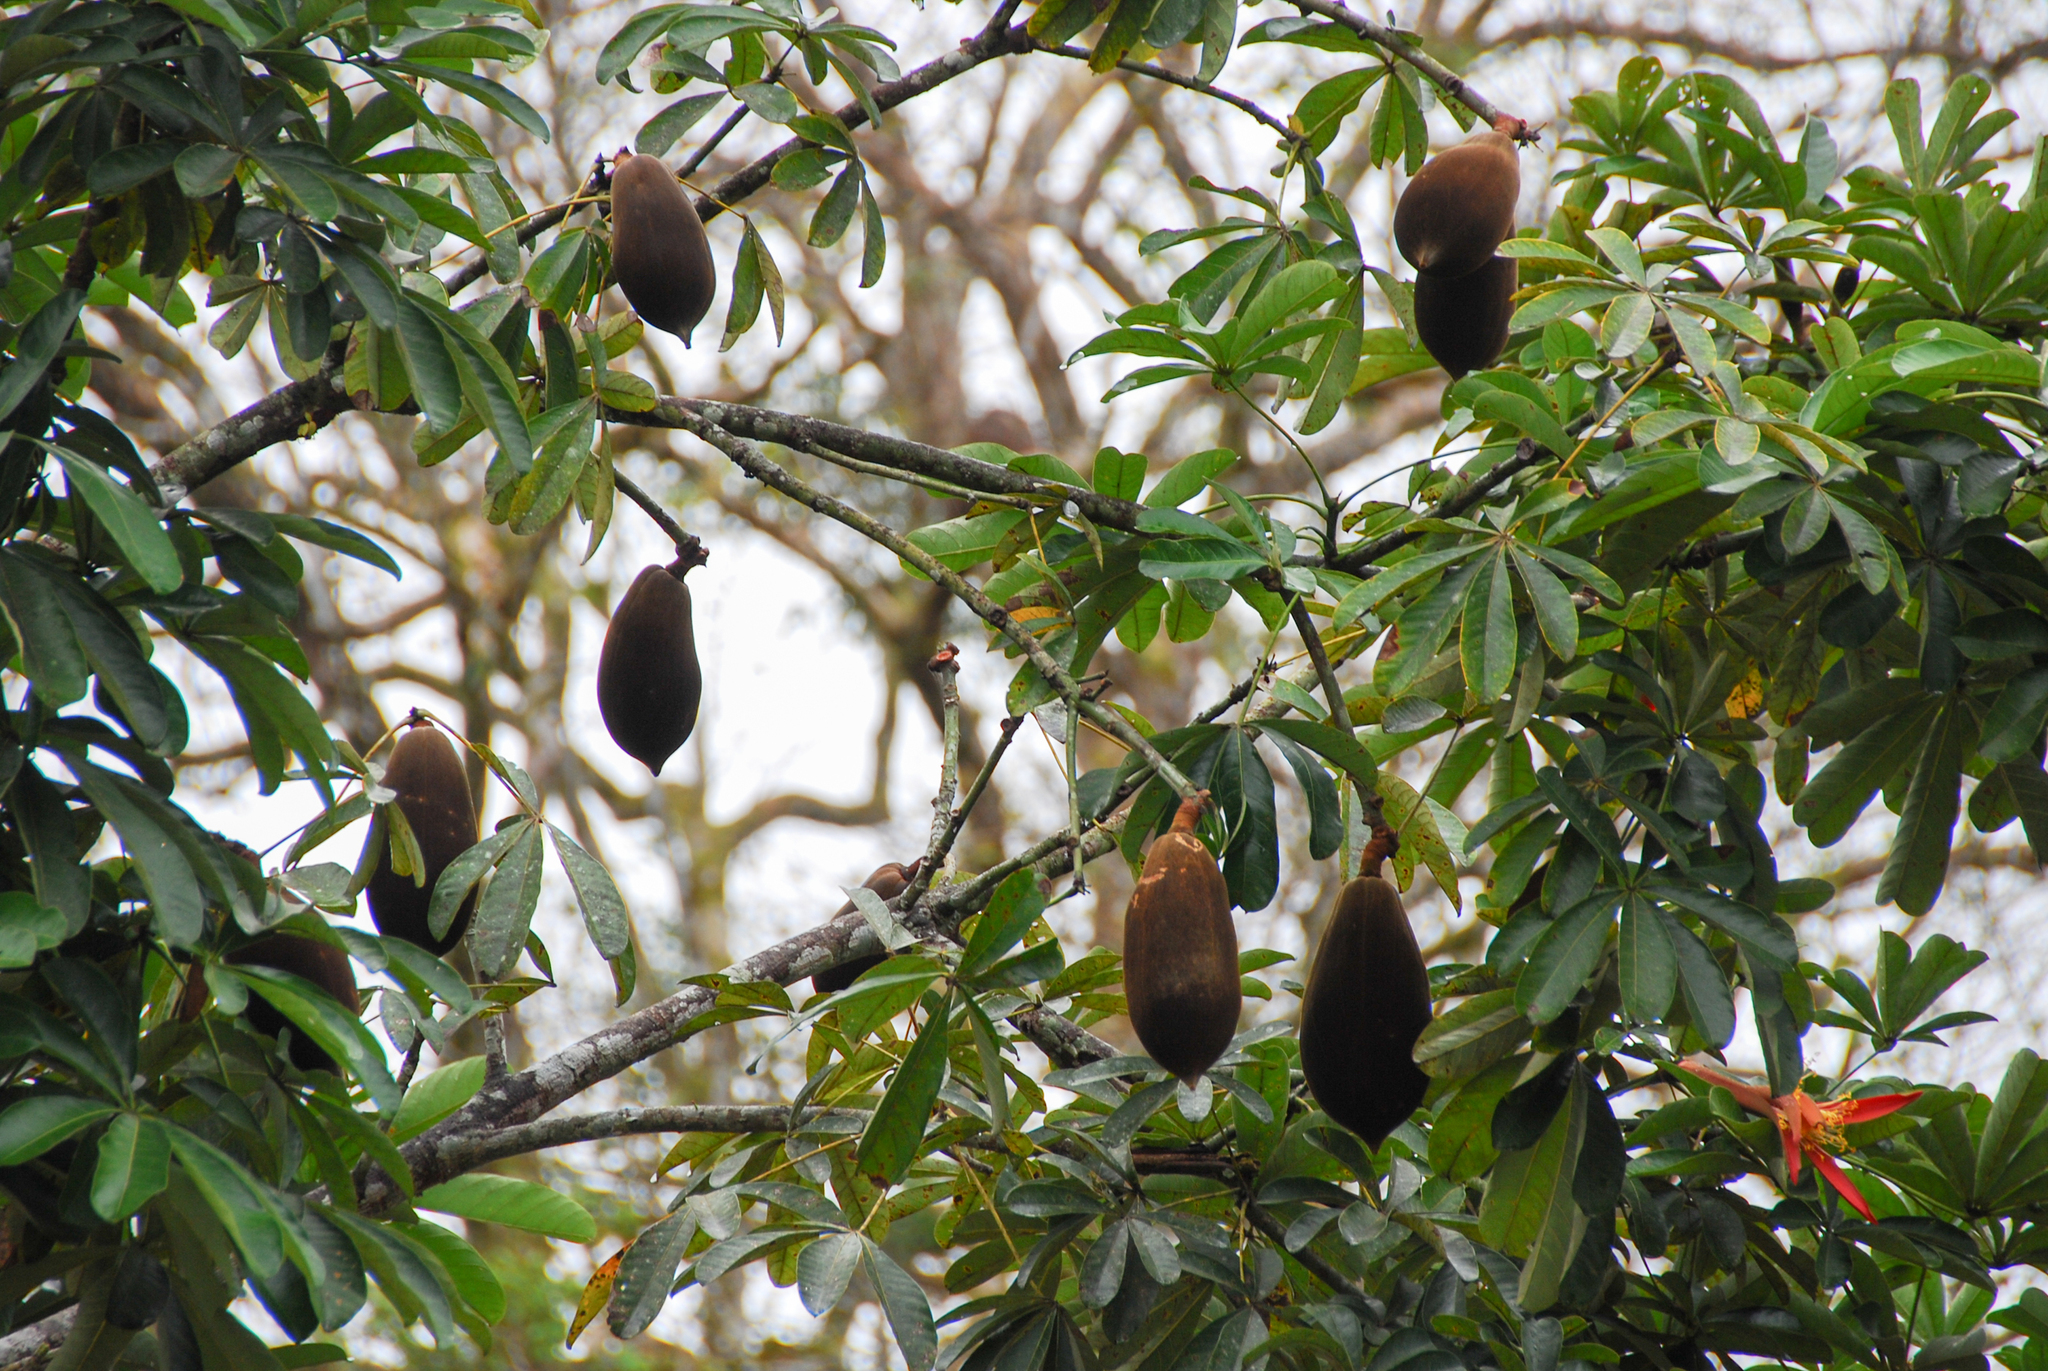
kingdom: Plantae
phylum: Tracheophyta
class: Magnoliopsida
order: Malvales
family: Malvaceae
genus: Pachira
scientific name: Pachira insignis
